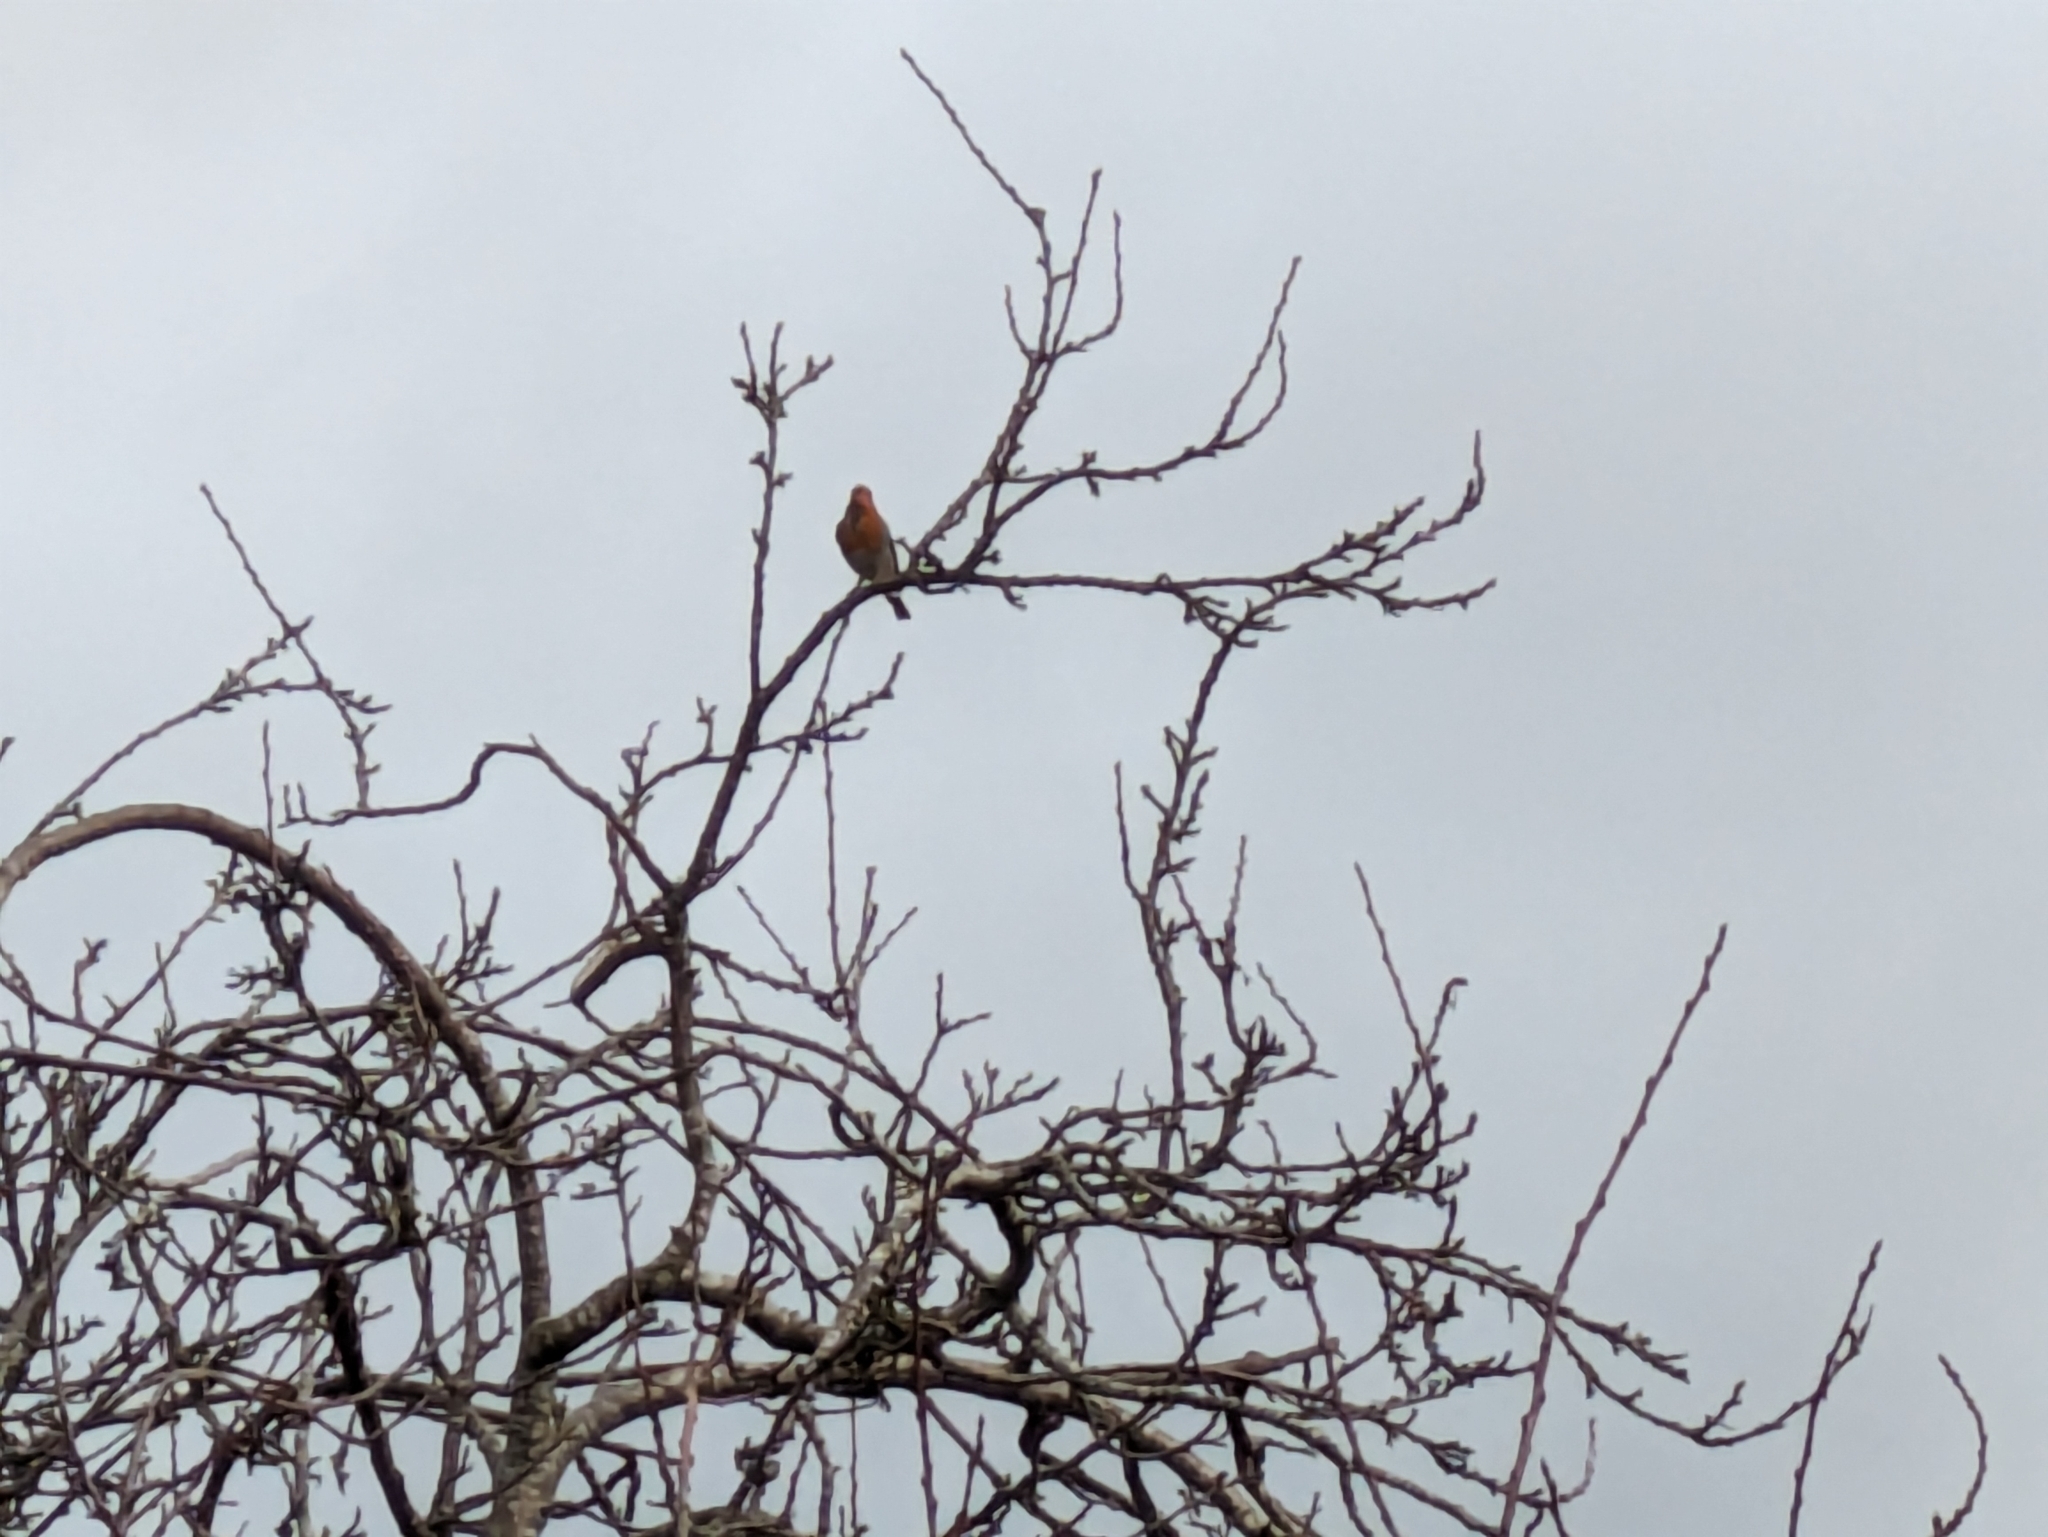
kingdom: Animalia
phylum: Chordata
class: Aves
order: Passeriformes
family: Muscicapidae
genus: Erithacus
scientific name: Erithacus rubecula
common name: European robin
